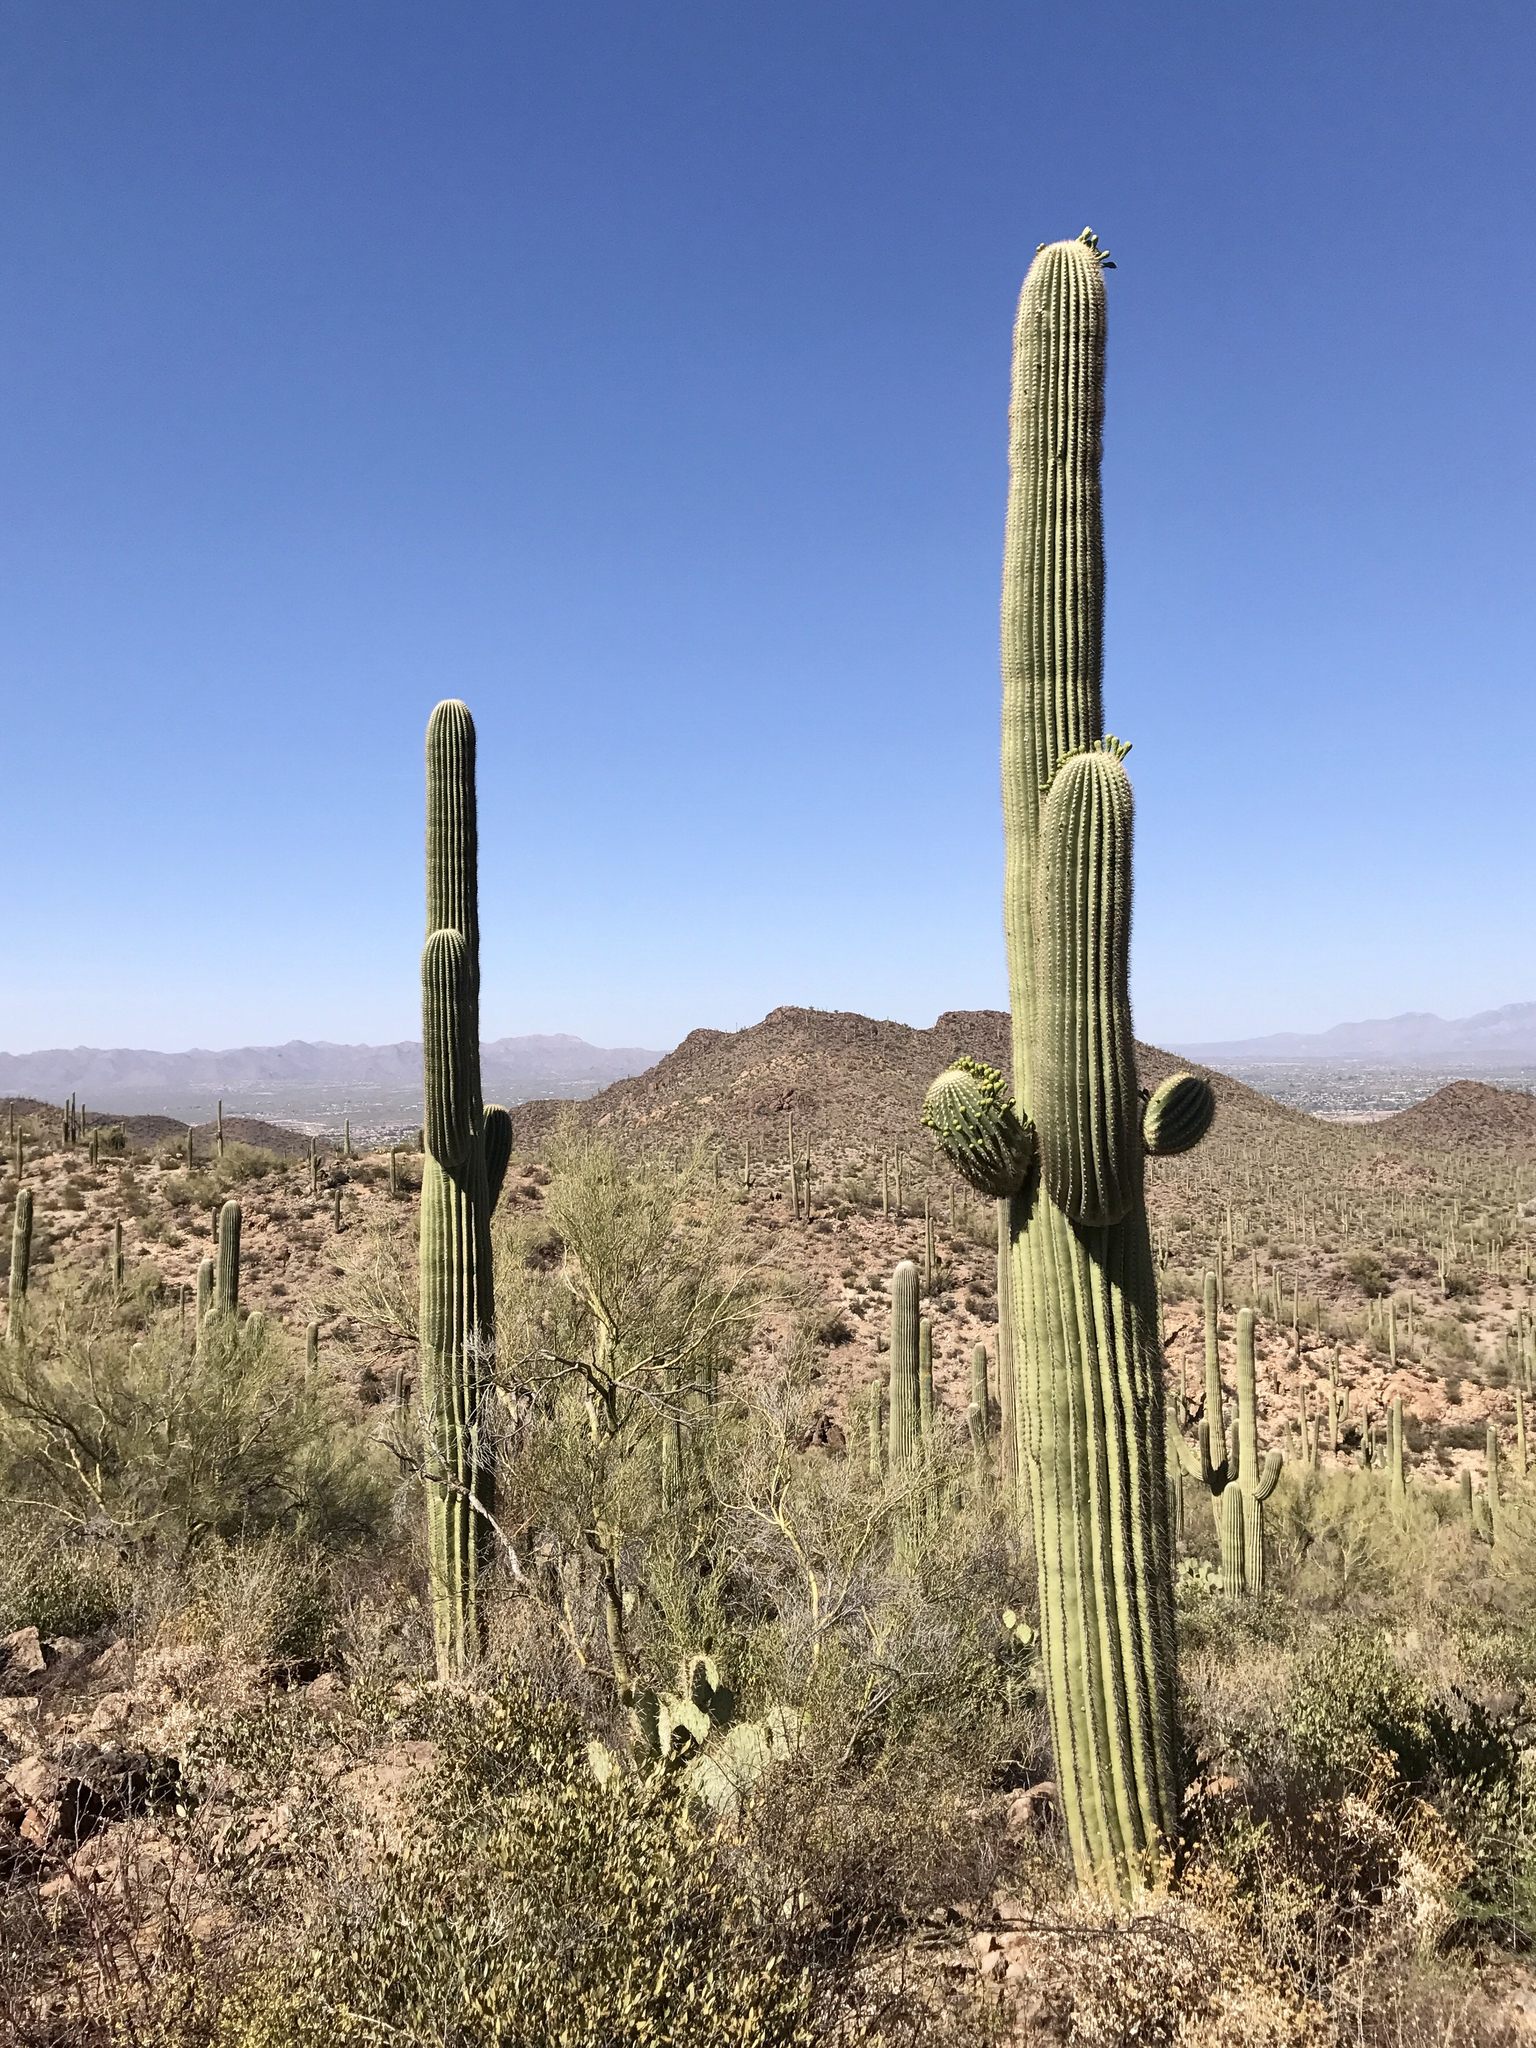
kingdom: Plantae
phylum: Tracheophyta
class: Magnoliopsida
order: Caryophyllales
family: Cactaceae
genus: Carnegiea
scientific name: Carnegiea gigantea
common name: Saguaro
